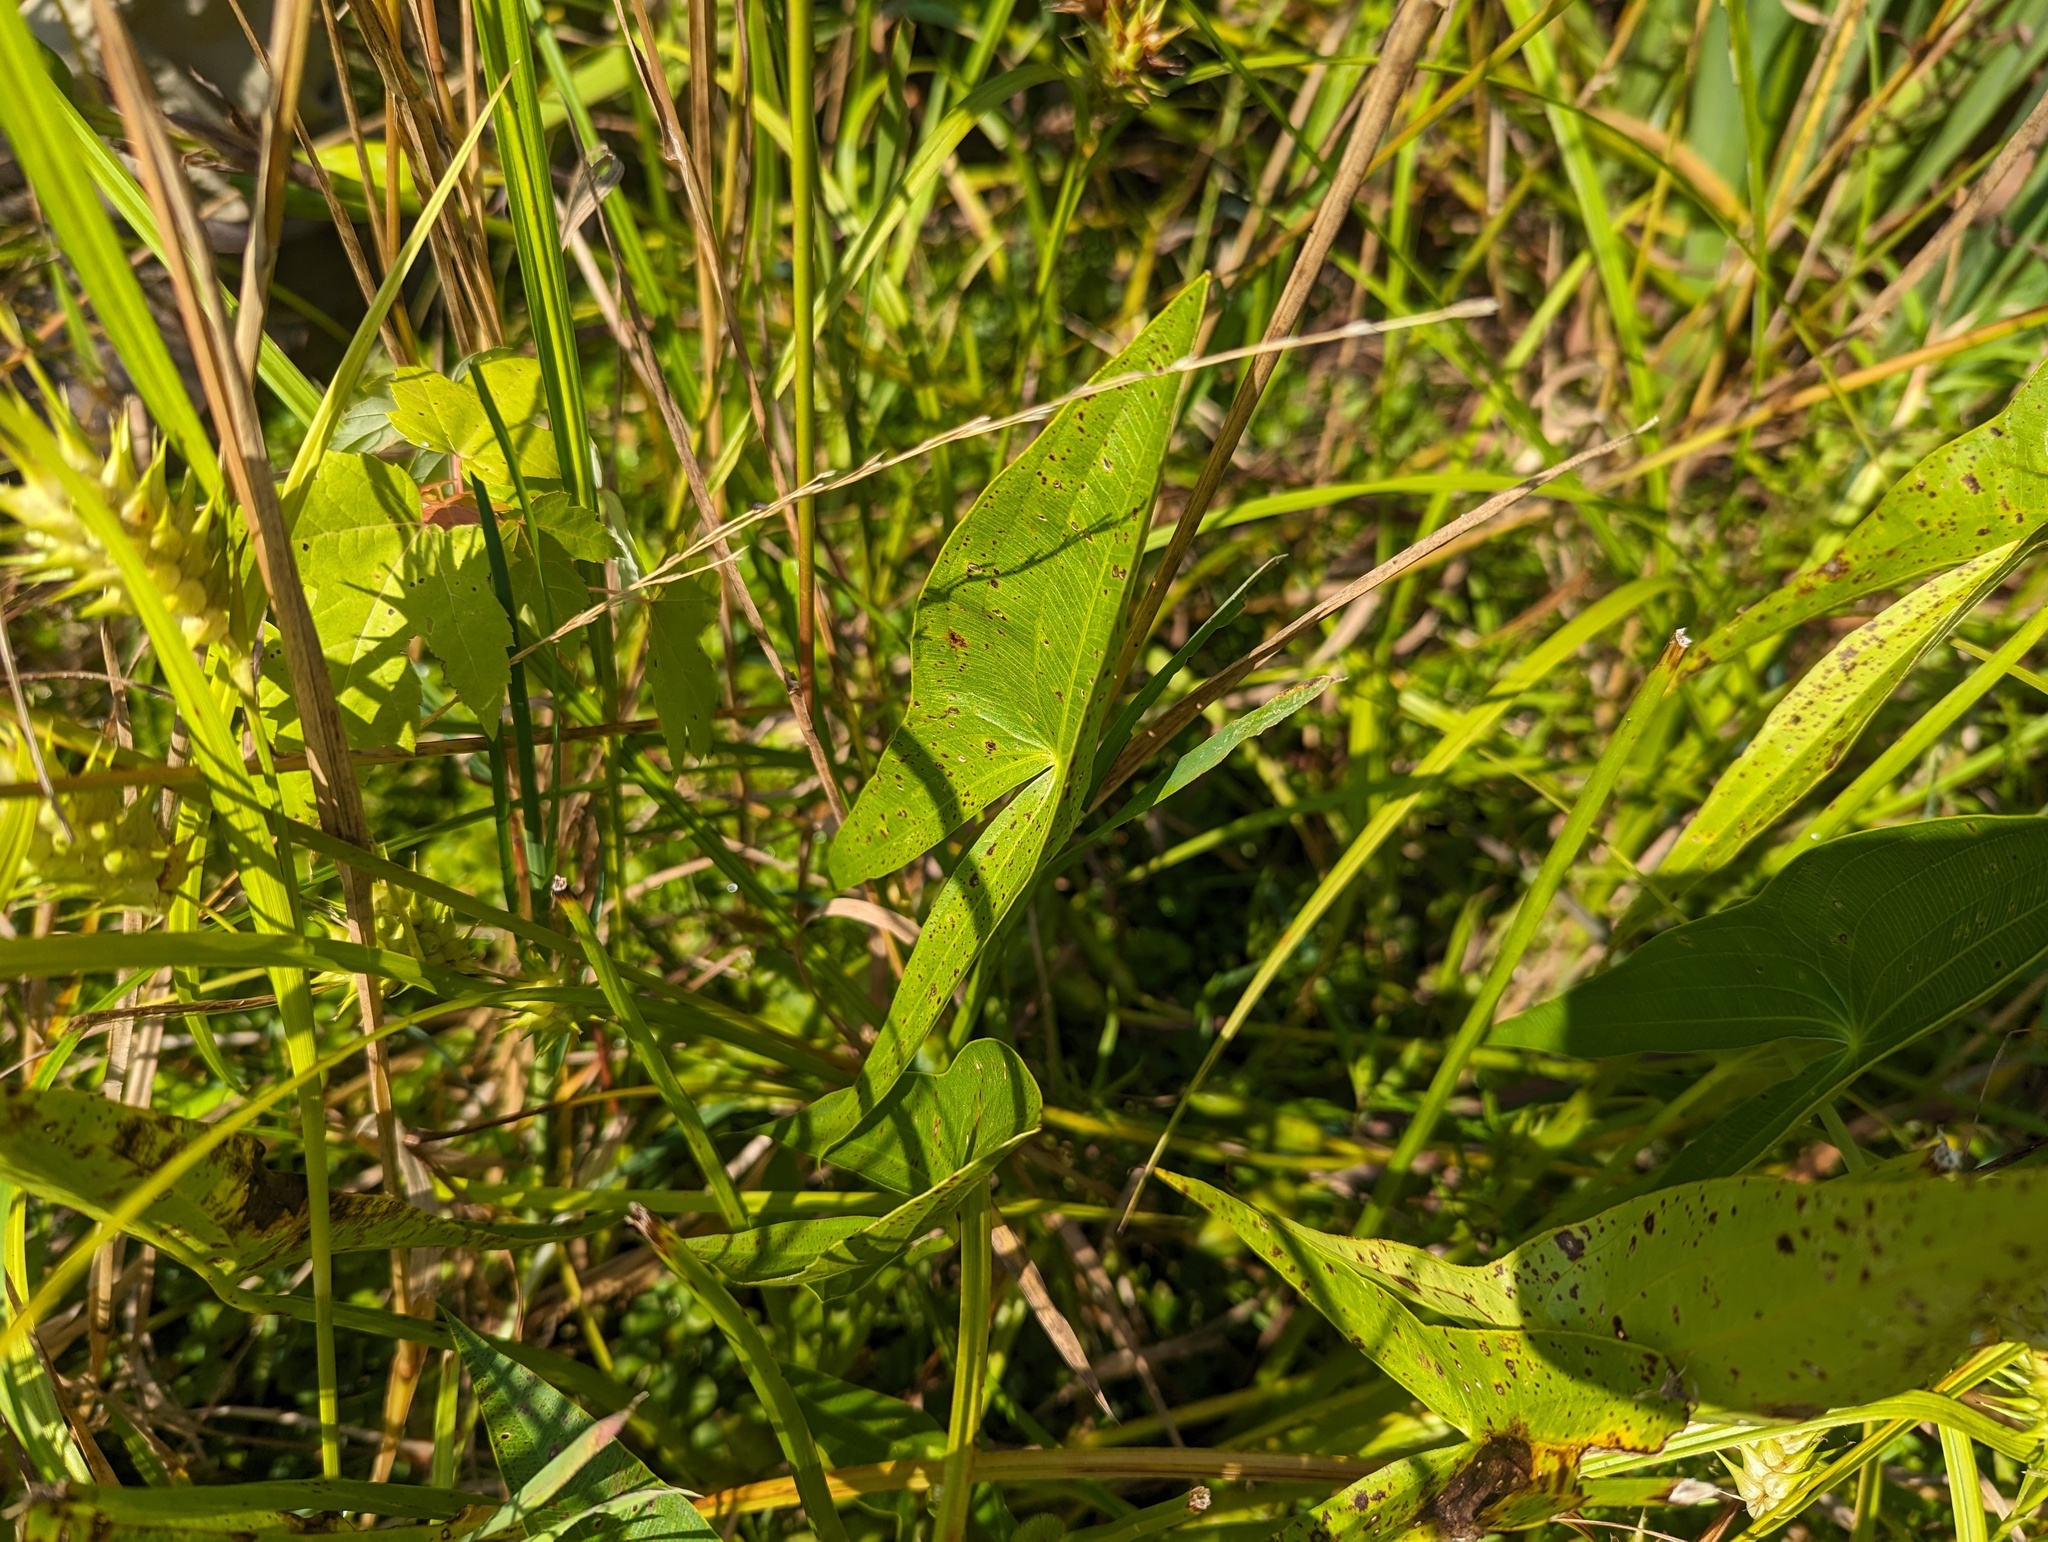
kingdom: Plantae
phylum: Tracheophyta
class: Liliopsida
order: Alismatales
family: Alismataceae
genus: Sagittaria
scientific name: Sagittaria brevirostra
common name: Midwestern arrowhead
